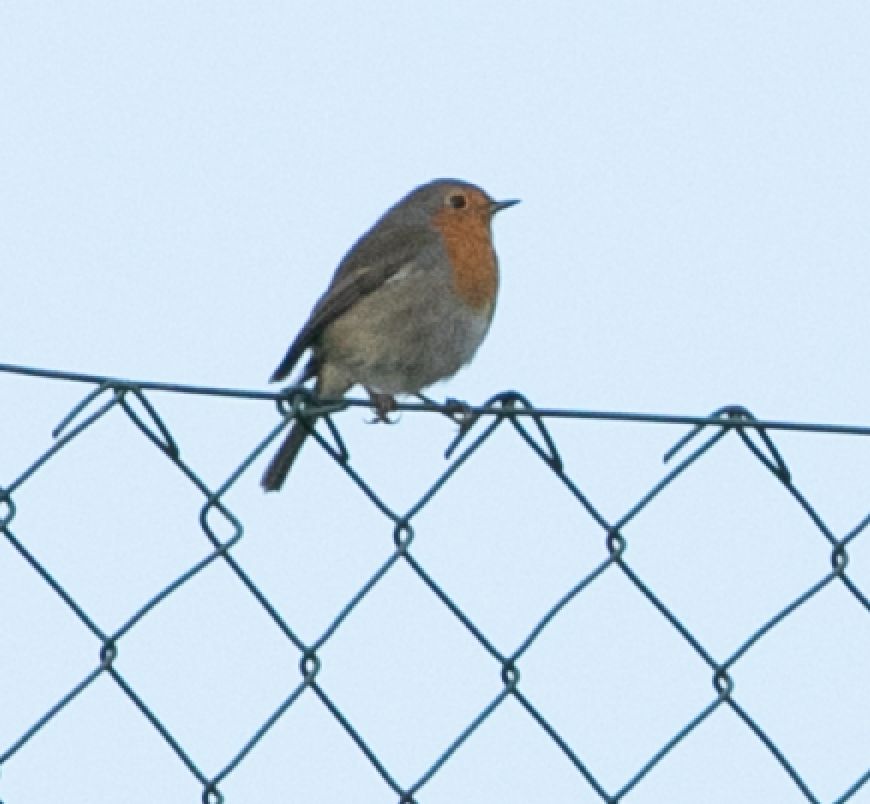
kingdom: Animalia
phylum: Chordata
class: Aves
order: Passeriformes
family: Muscicapidae
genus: Erithacus
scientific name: Erithacus rubecula
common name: European robin
